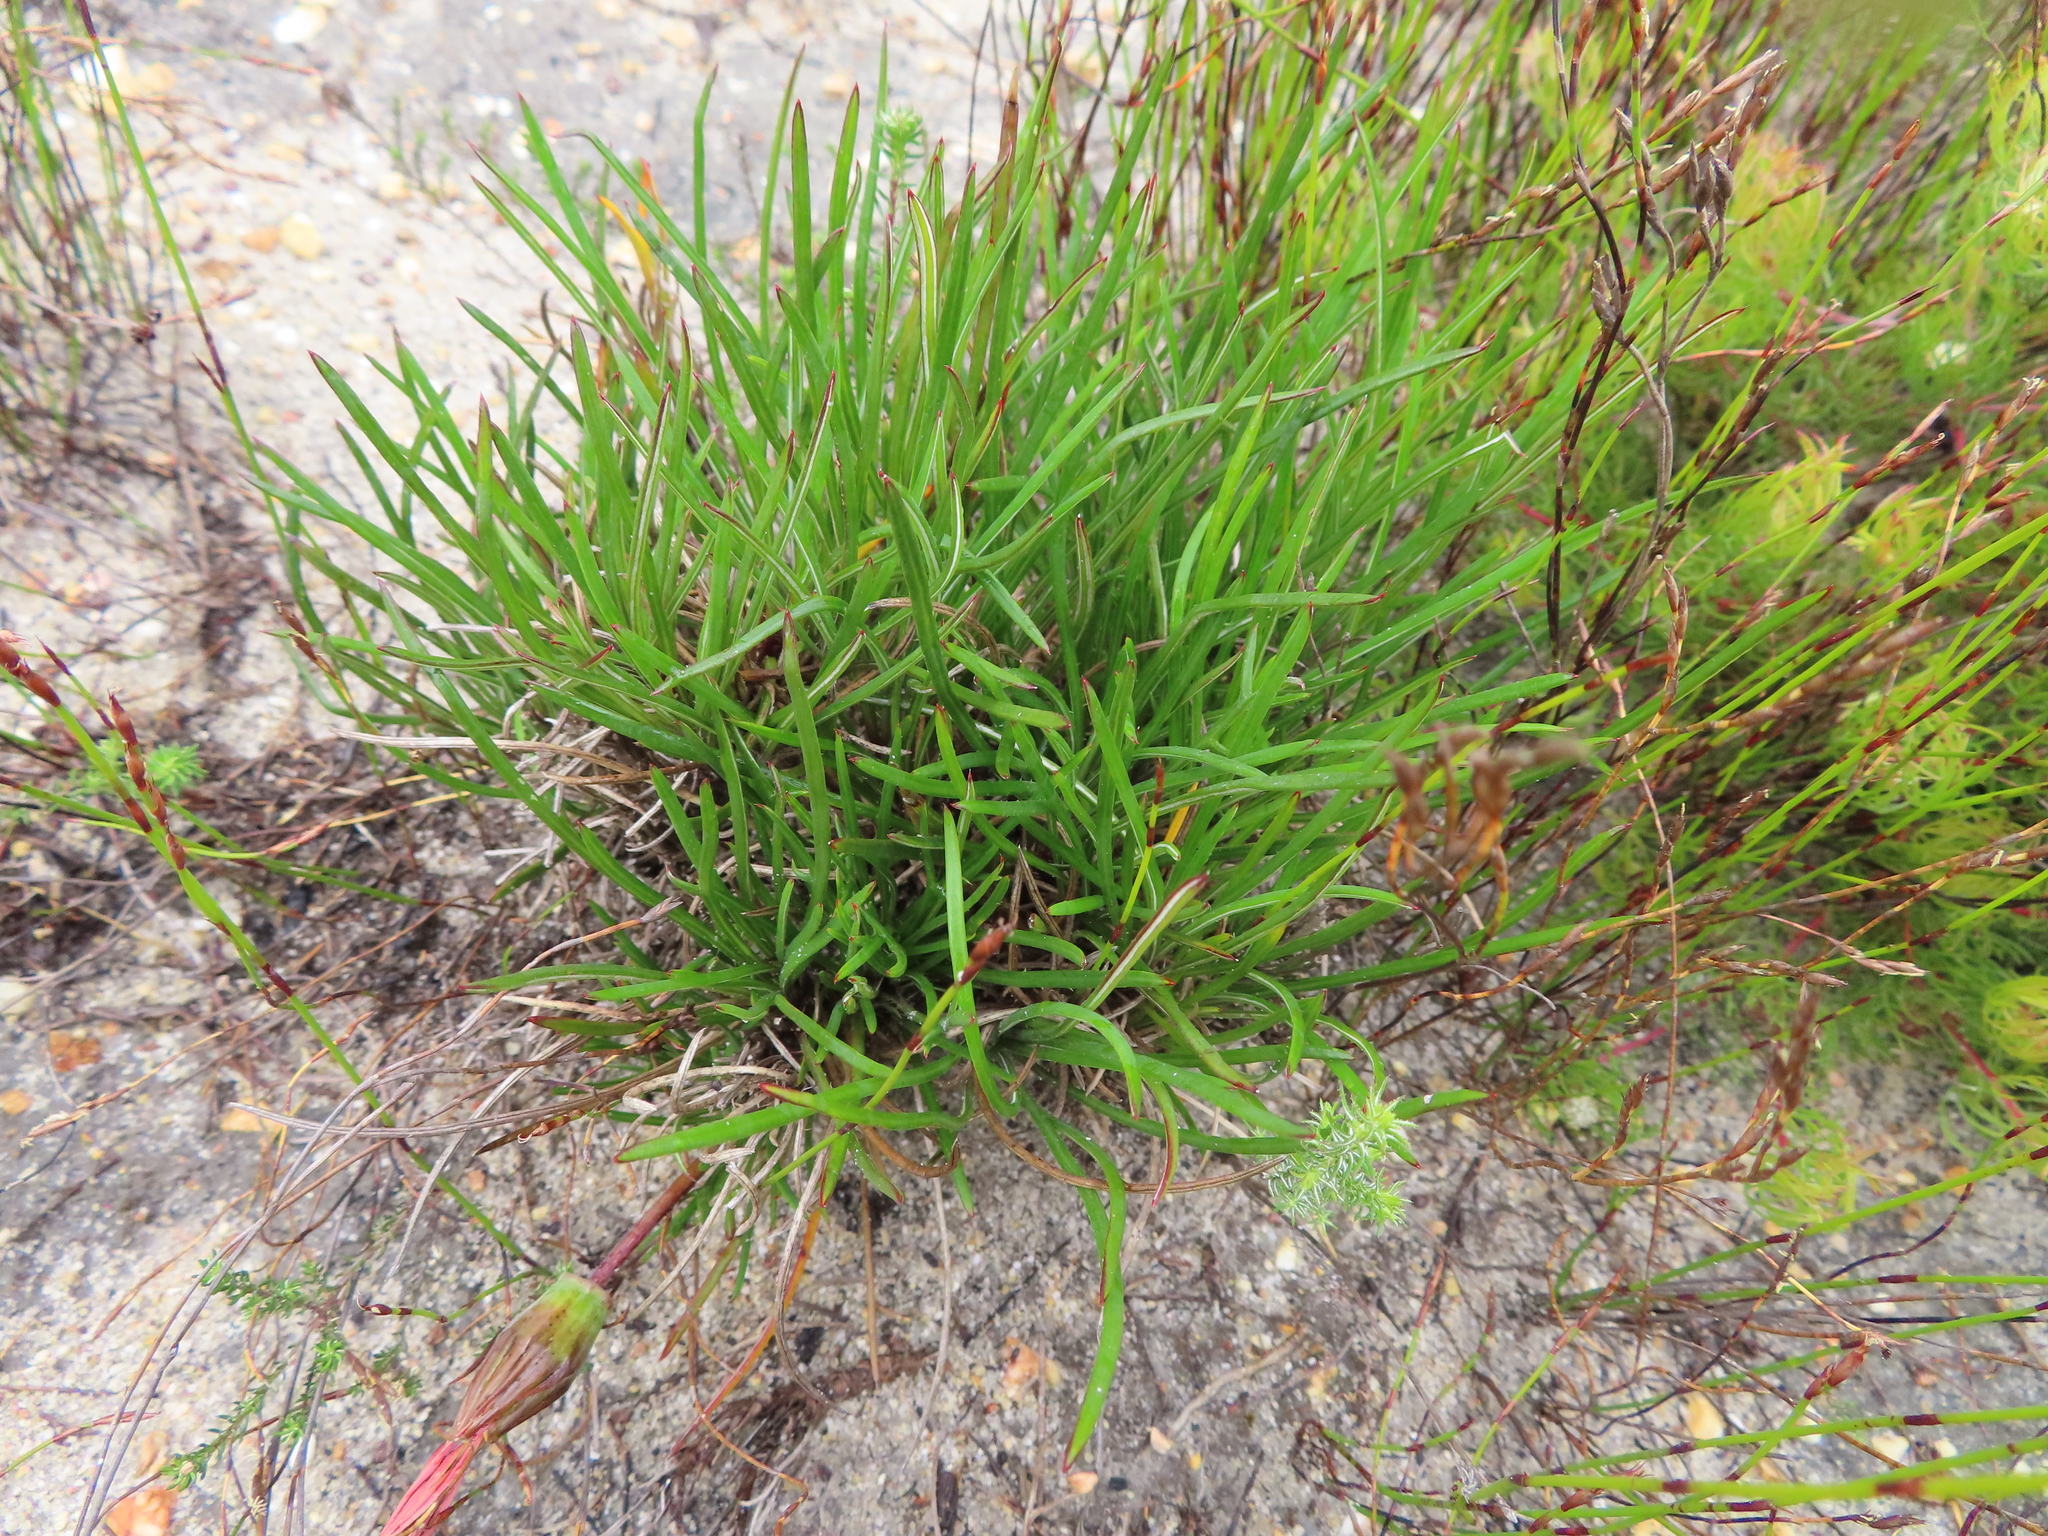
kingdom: Plantae
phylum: Tracheophyta
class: Magnoliopsida
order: Asterales
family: Asteraceae
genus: Gazania
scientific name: Gazania ciliaris
